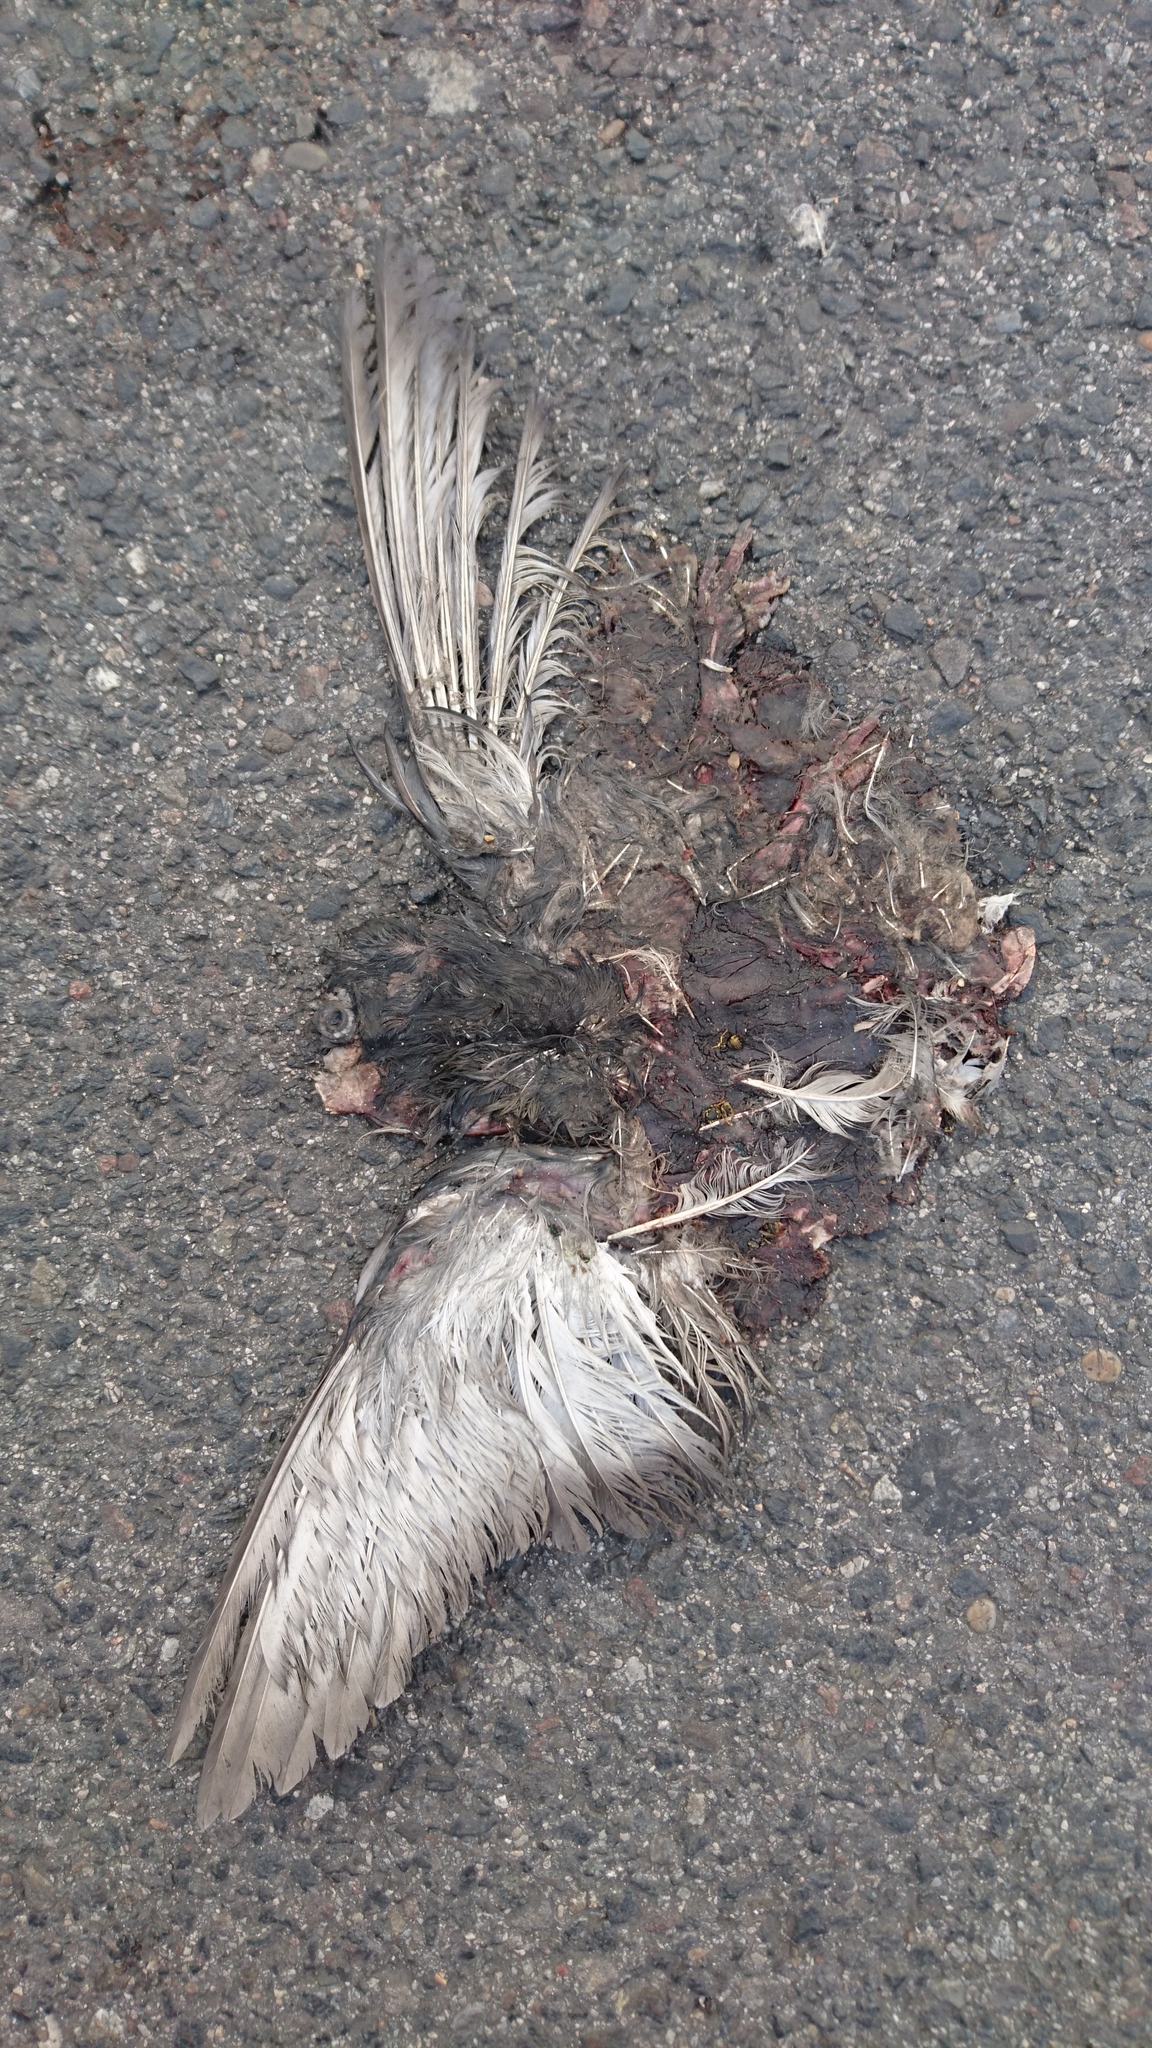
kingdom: Animalia
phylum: Chordata
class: Aves
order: Columbiformes
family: Columbidae
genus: Columba
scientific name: Columba livia
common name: Rock pigeon
